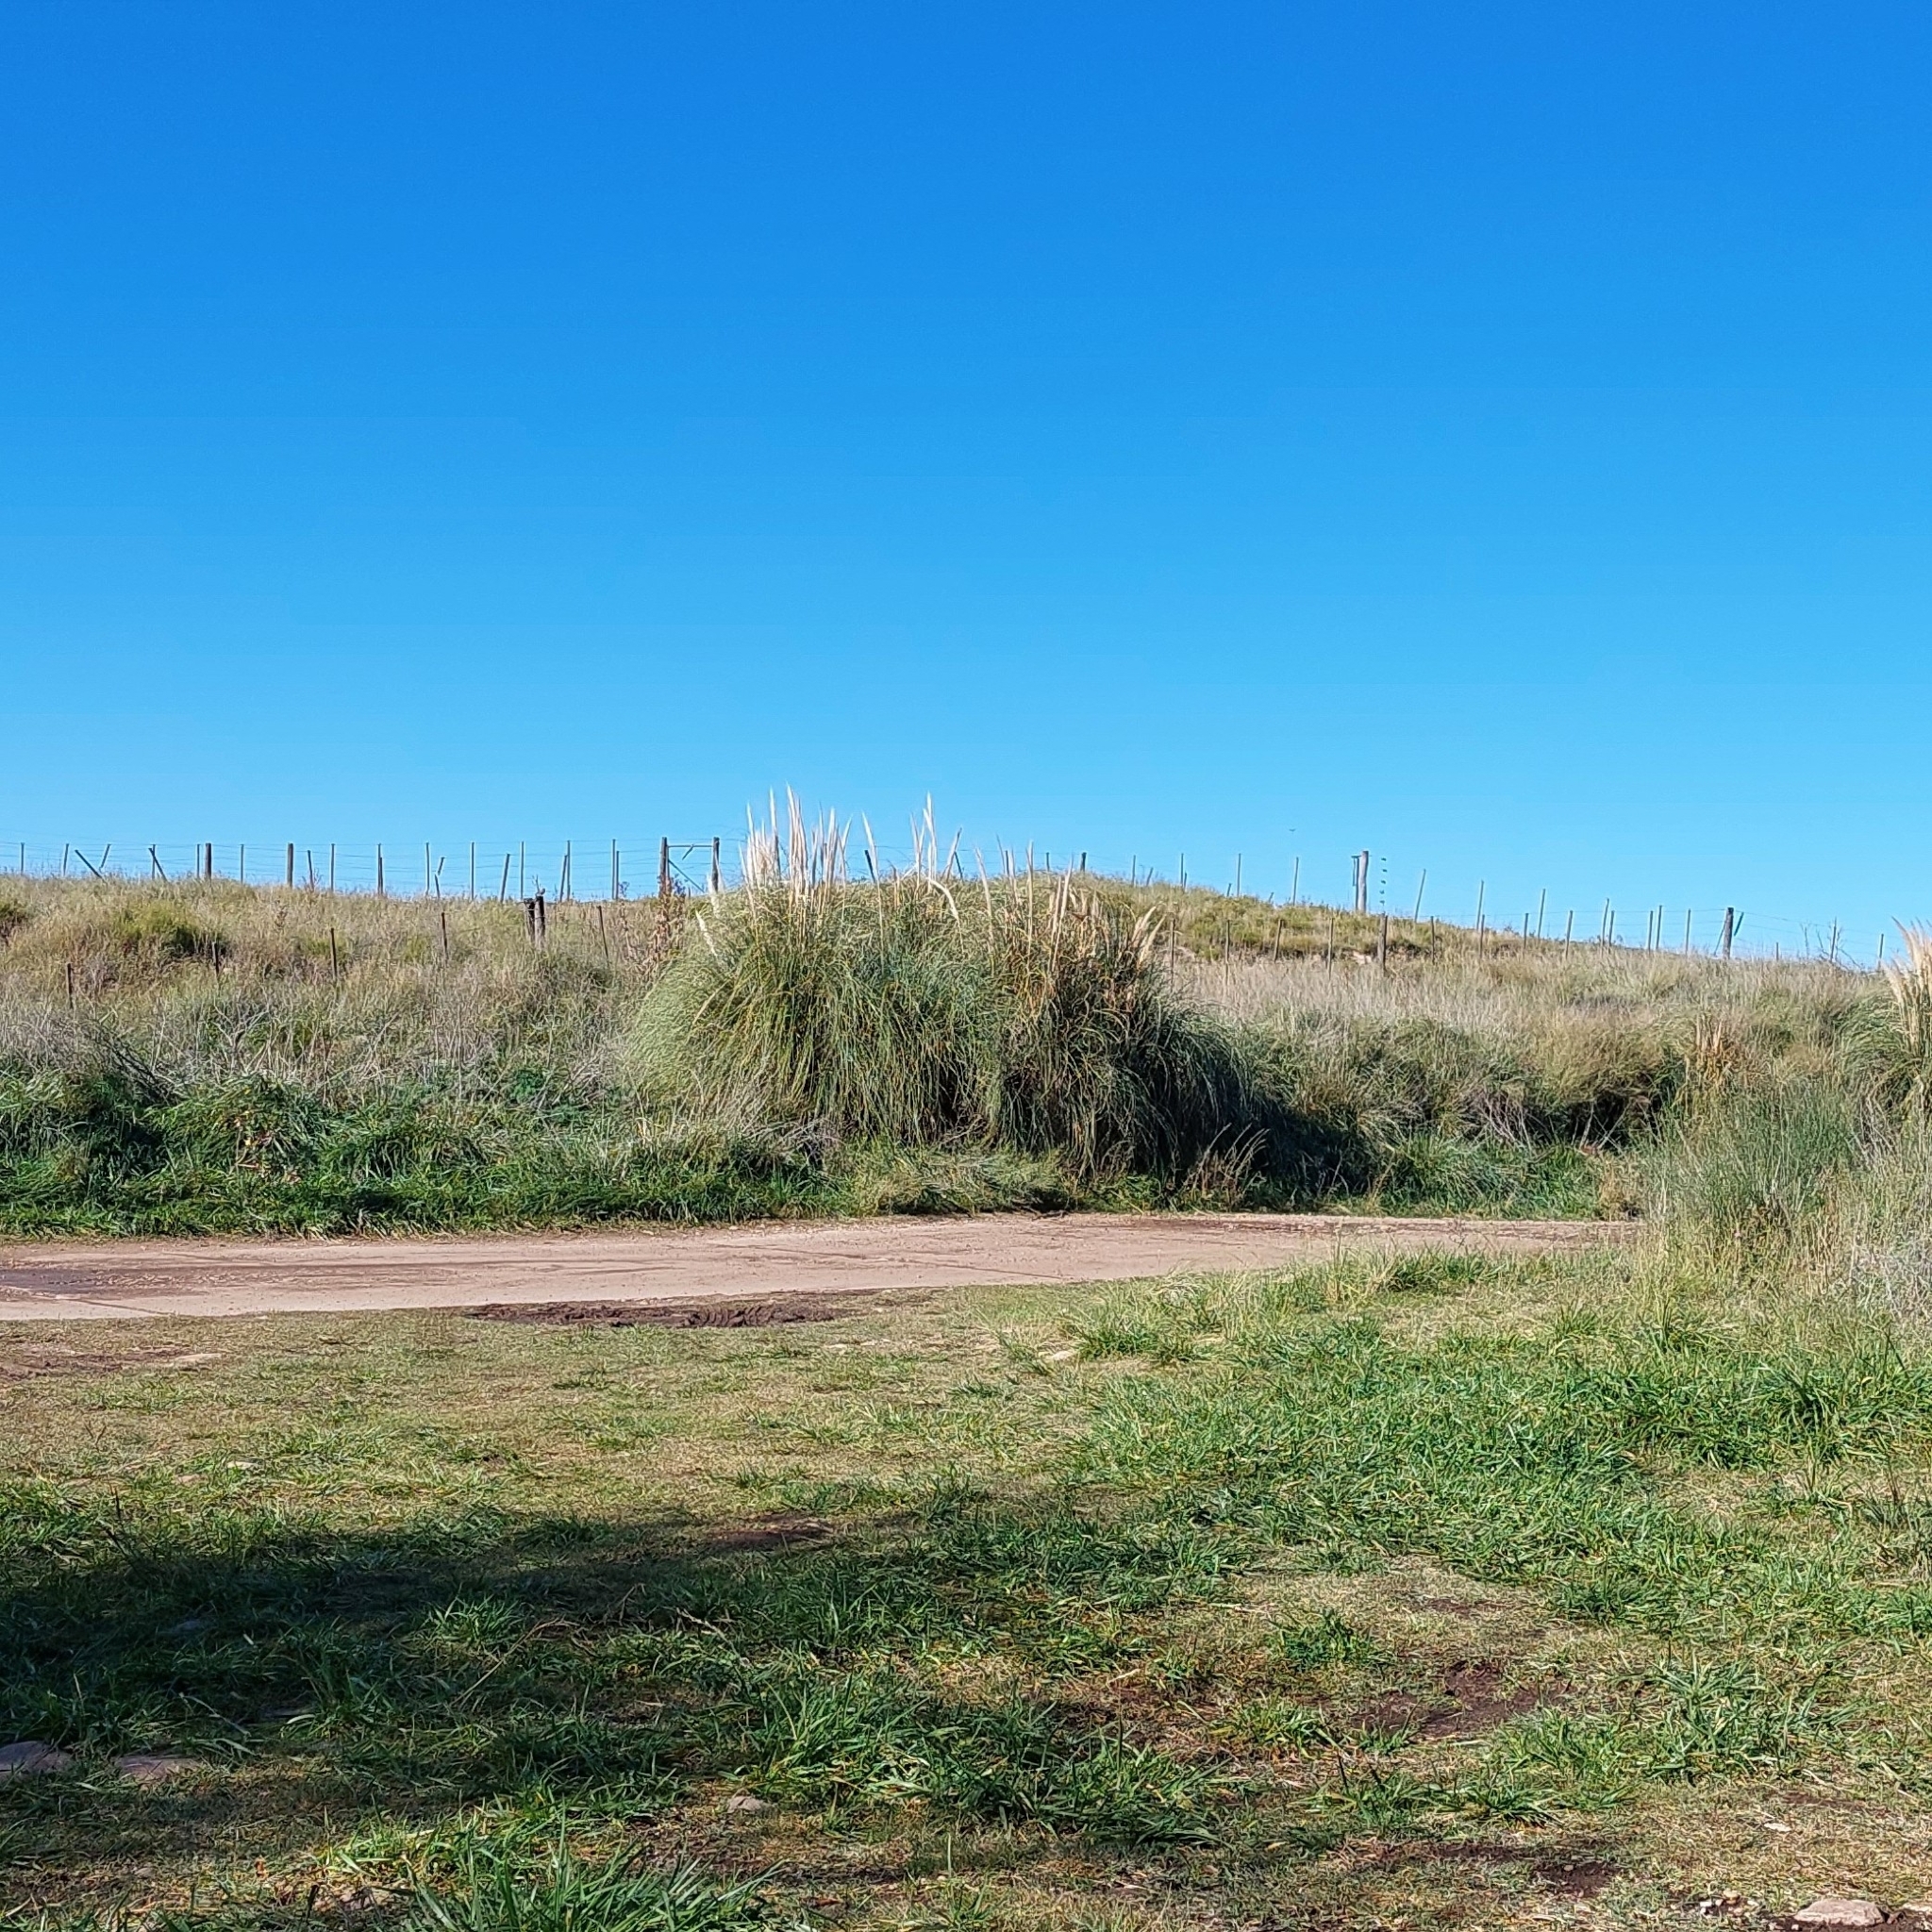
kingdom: Plantae
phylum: Tracheophyta
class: Liliopsida
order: Poales
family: Poaceae
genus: Cortaderia
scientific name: Cortaderia selloana
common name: Uruguayan pampas grass
